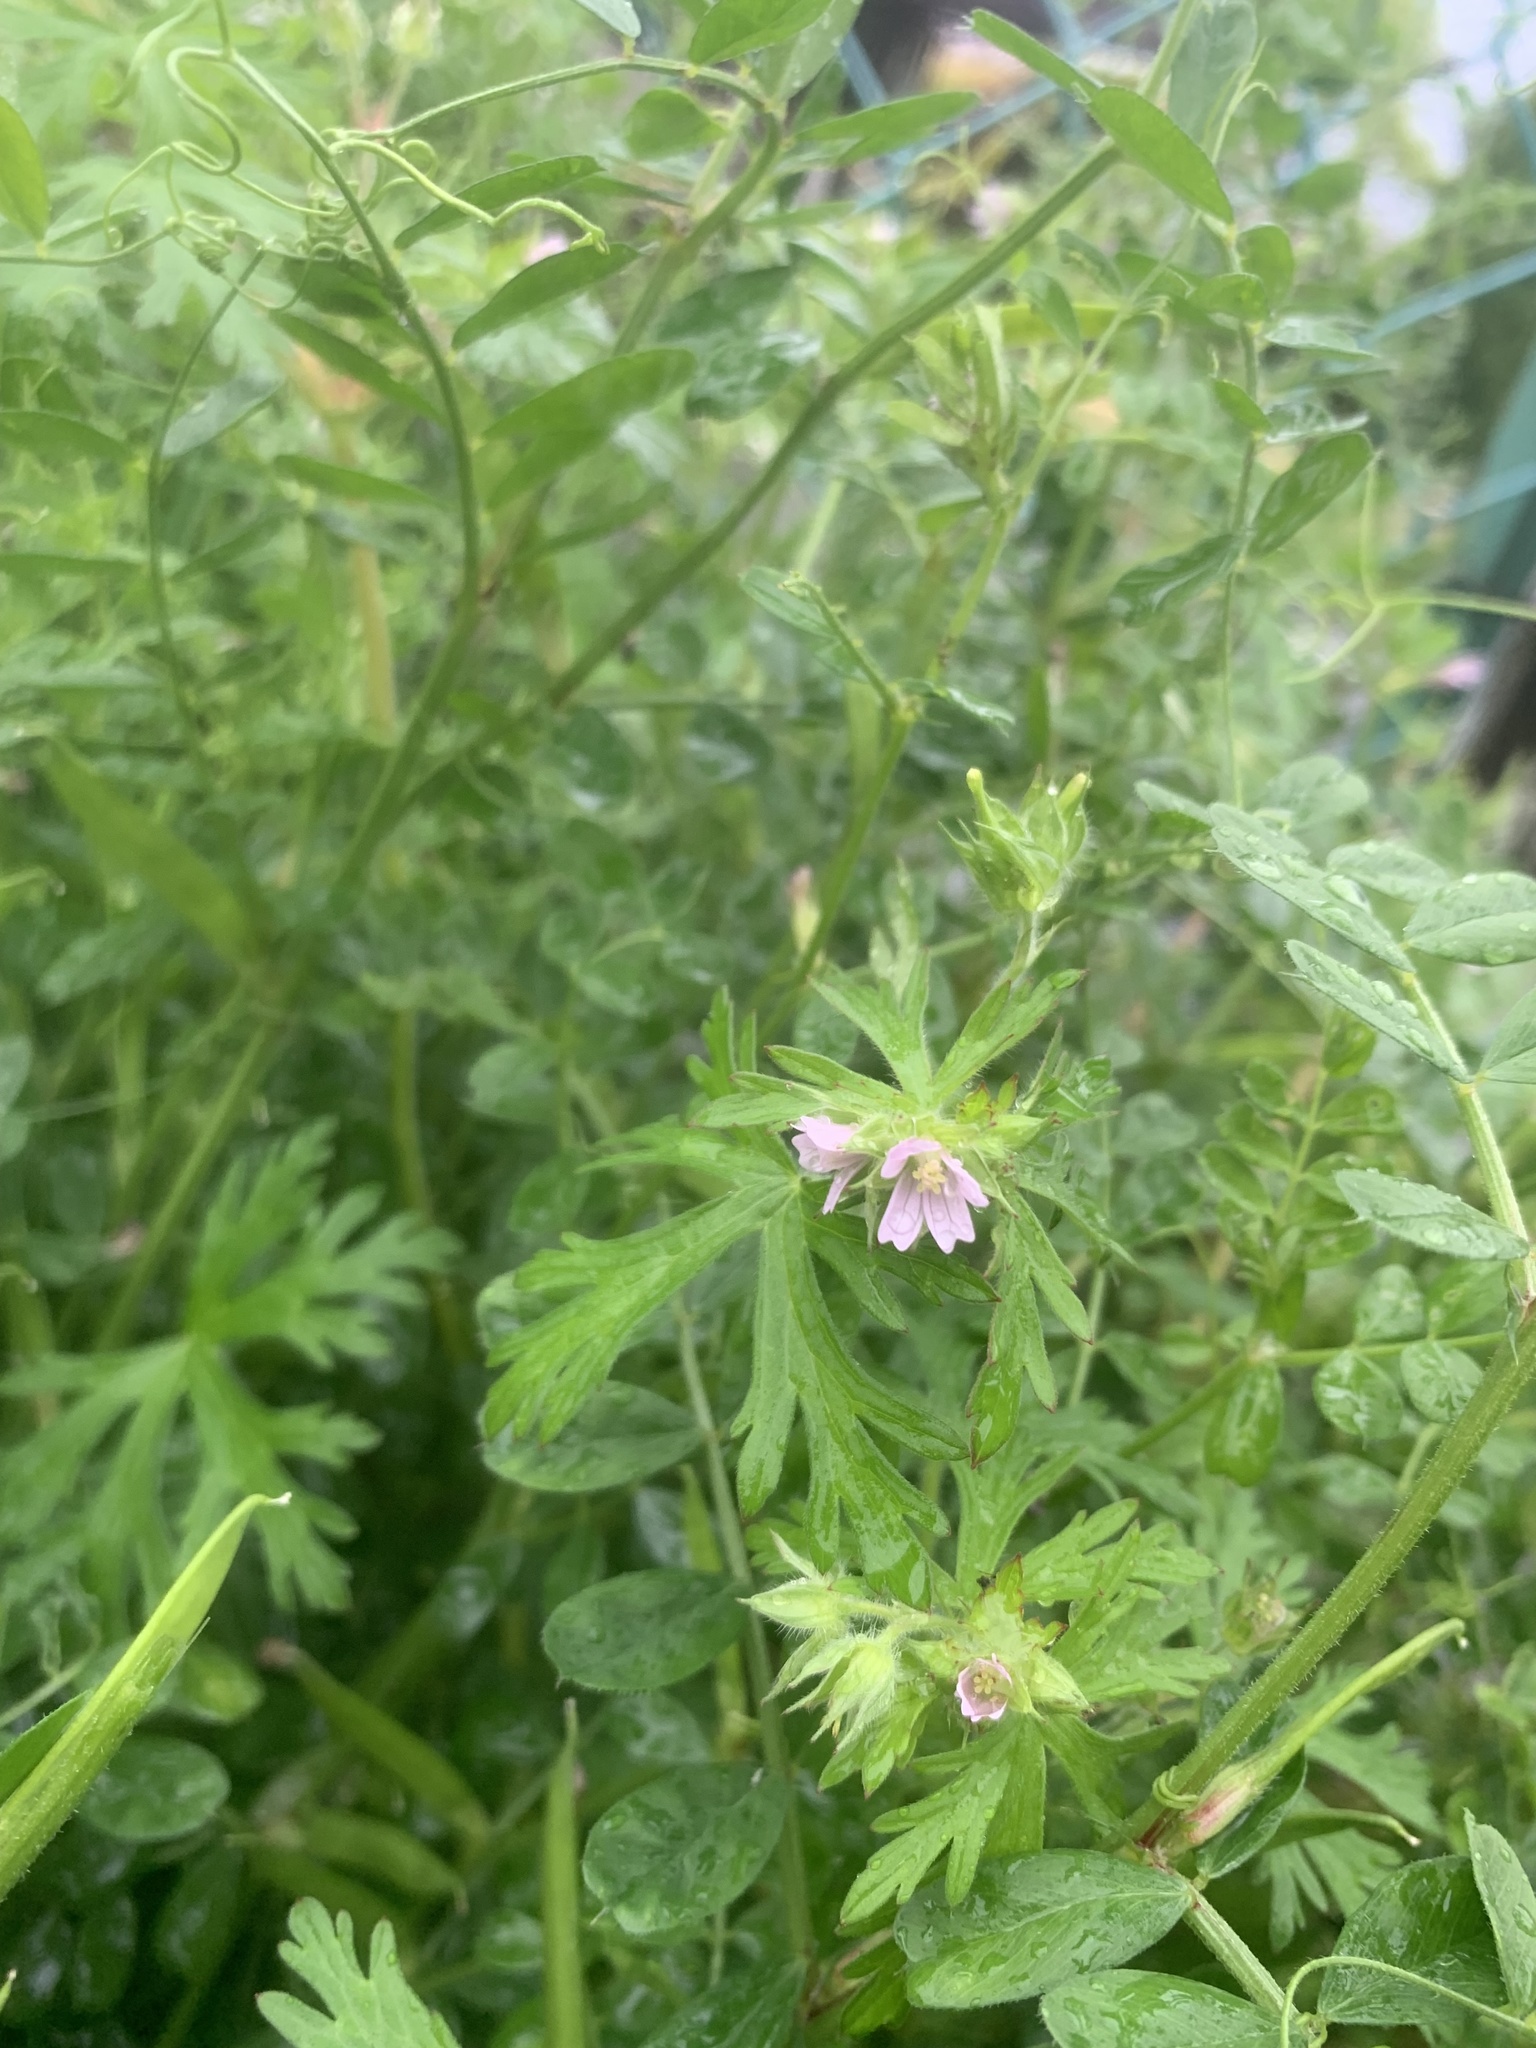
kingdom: Plantae
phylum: Tracheophyta
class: Magnoliopsida
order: Geraniales
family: Geraniaceae
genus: Geranium
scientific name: Geranium carolinianum
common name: Carolina crane's-bill
